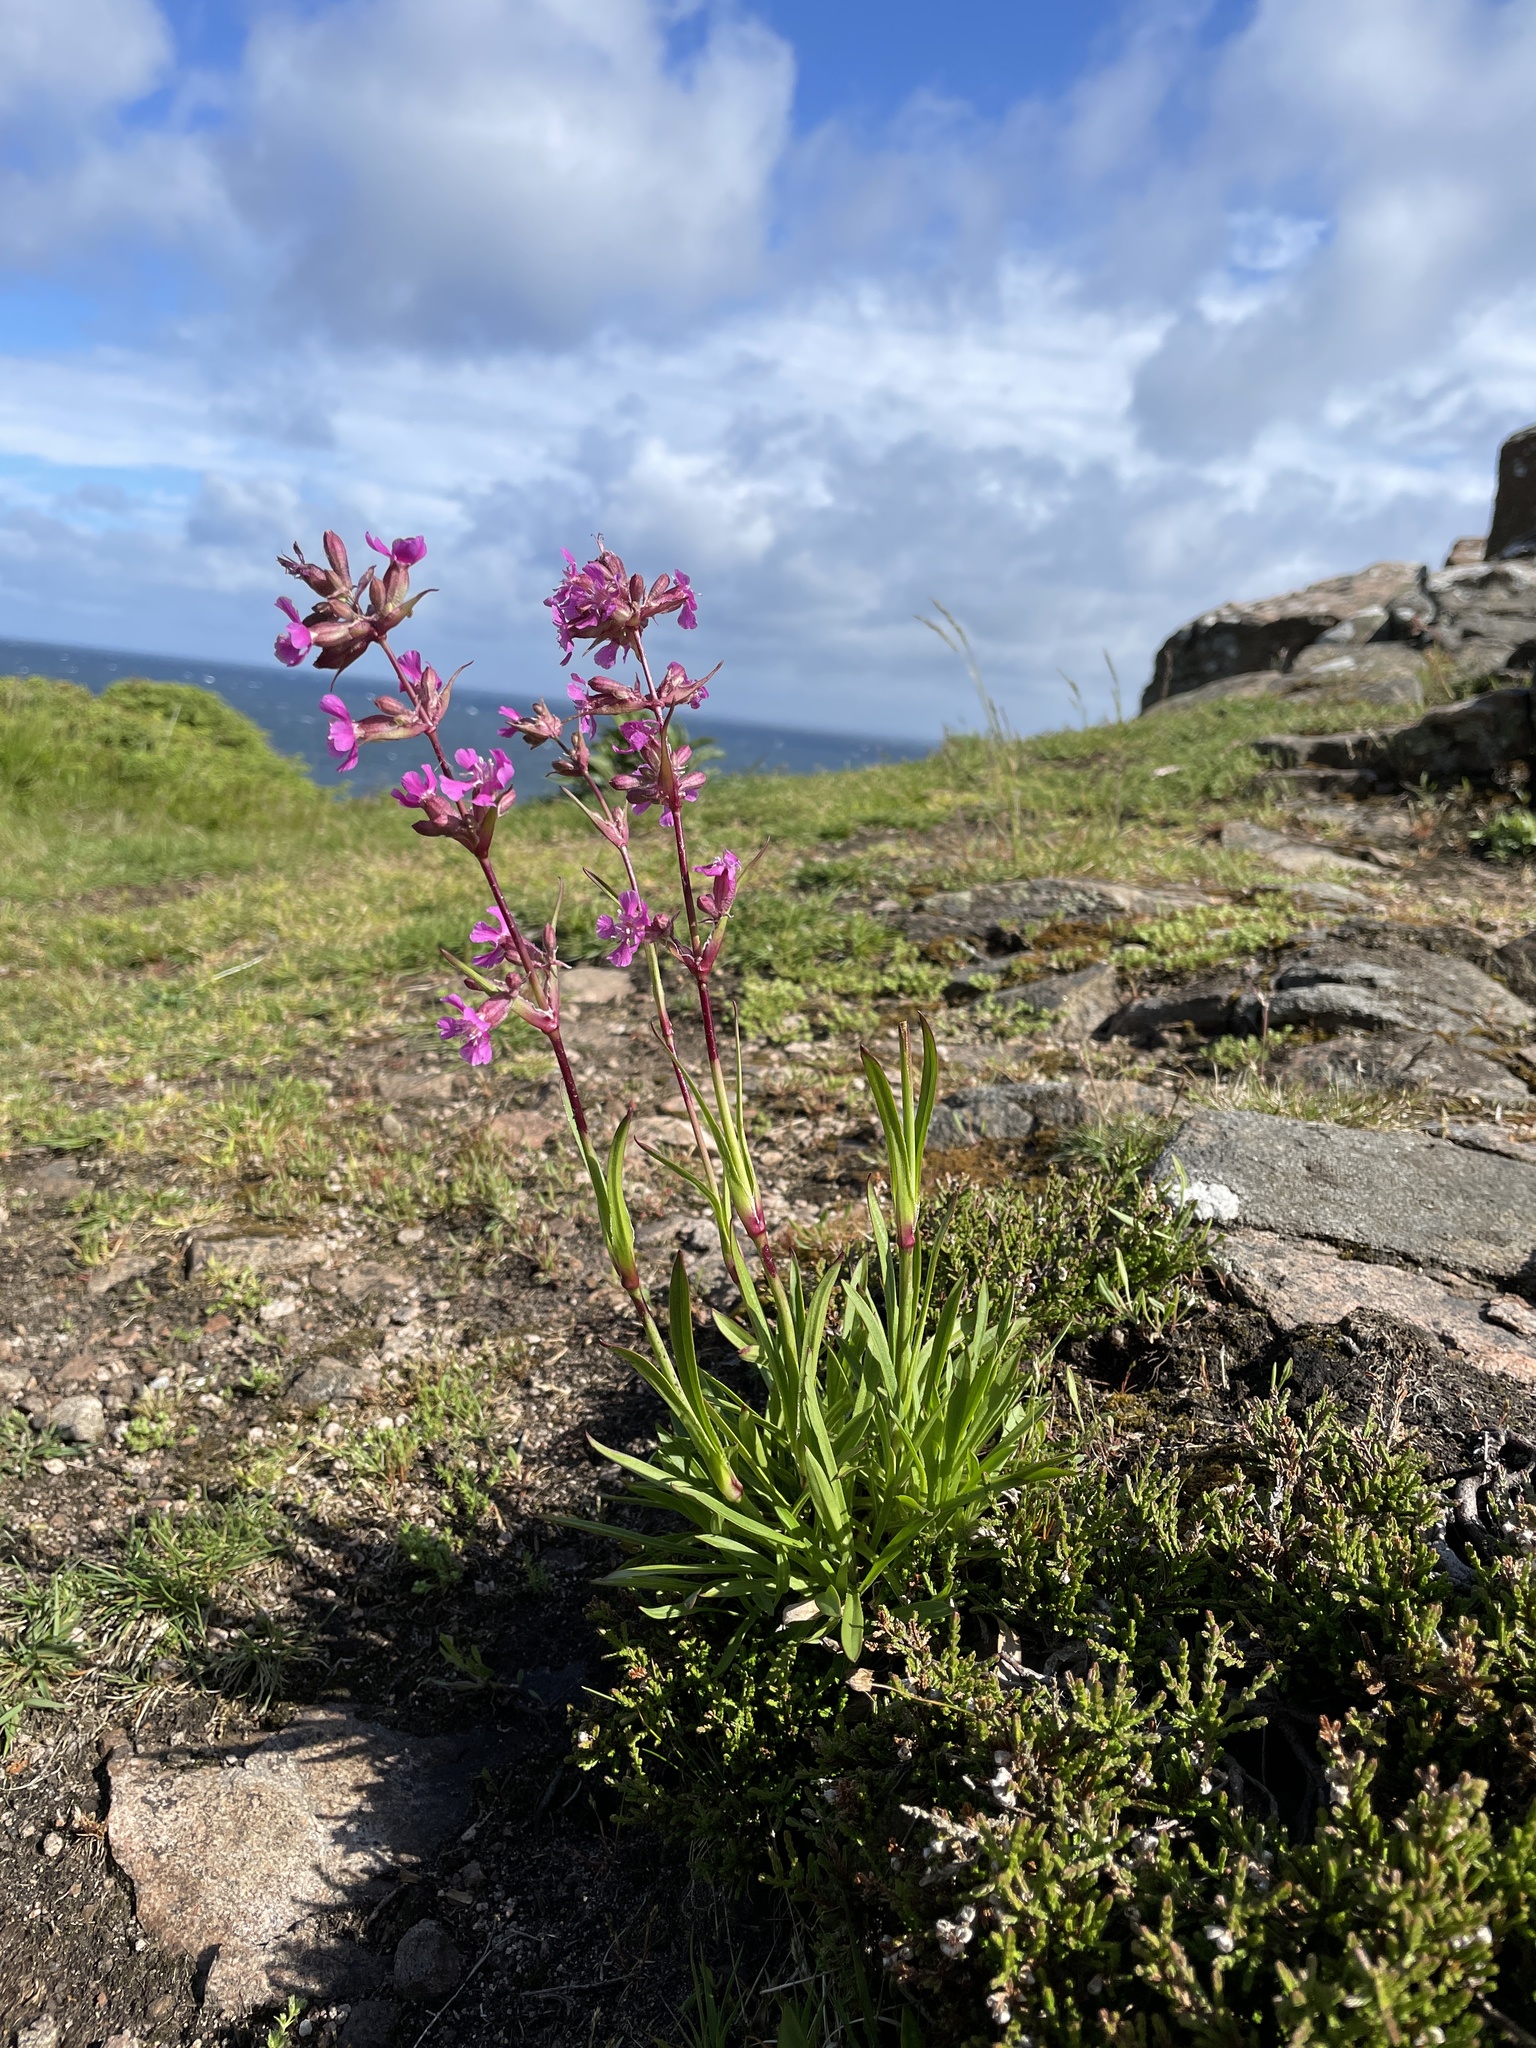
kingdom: Plantae
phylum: Tracheophyta
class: Magnoliopsida
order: Caryophyllales
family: Caryophyllaceae
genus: Viscaria
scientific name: Viscaria vulgaris
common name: Clammy campion
